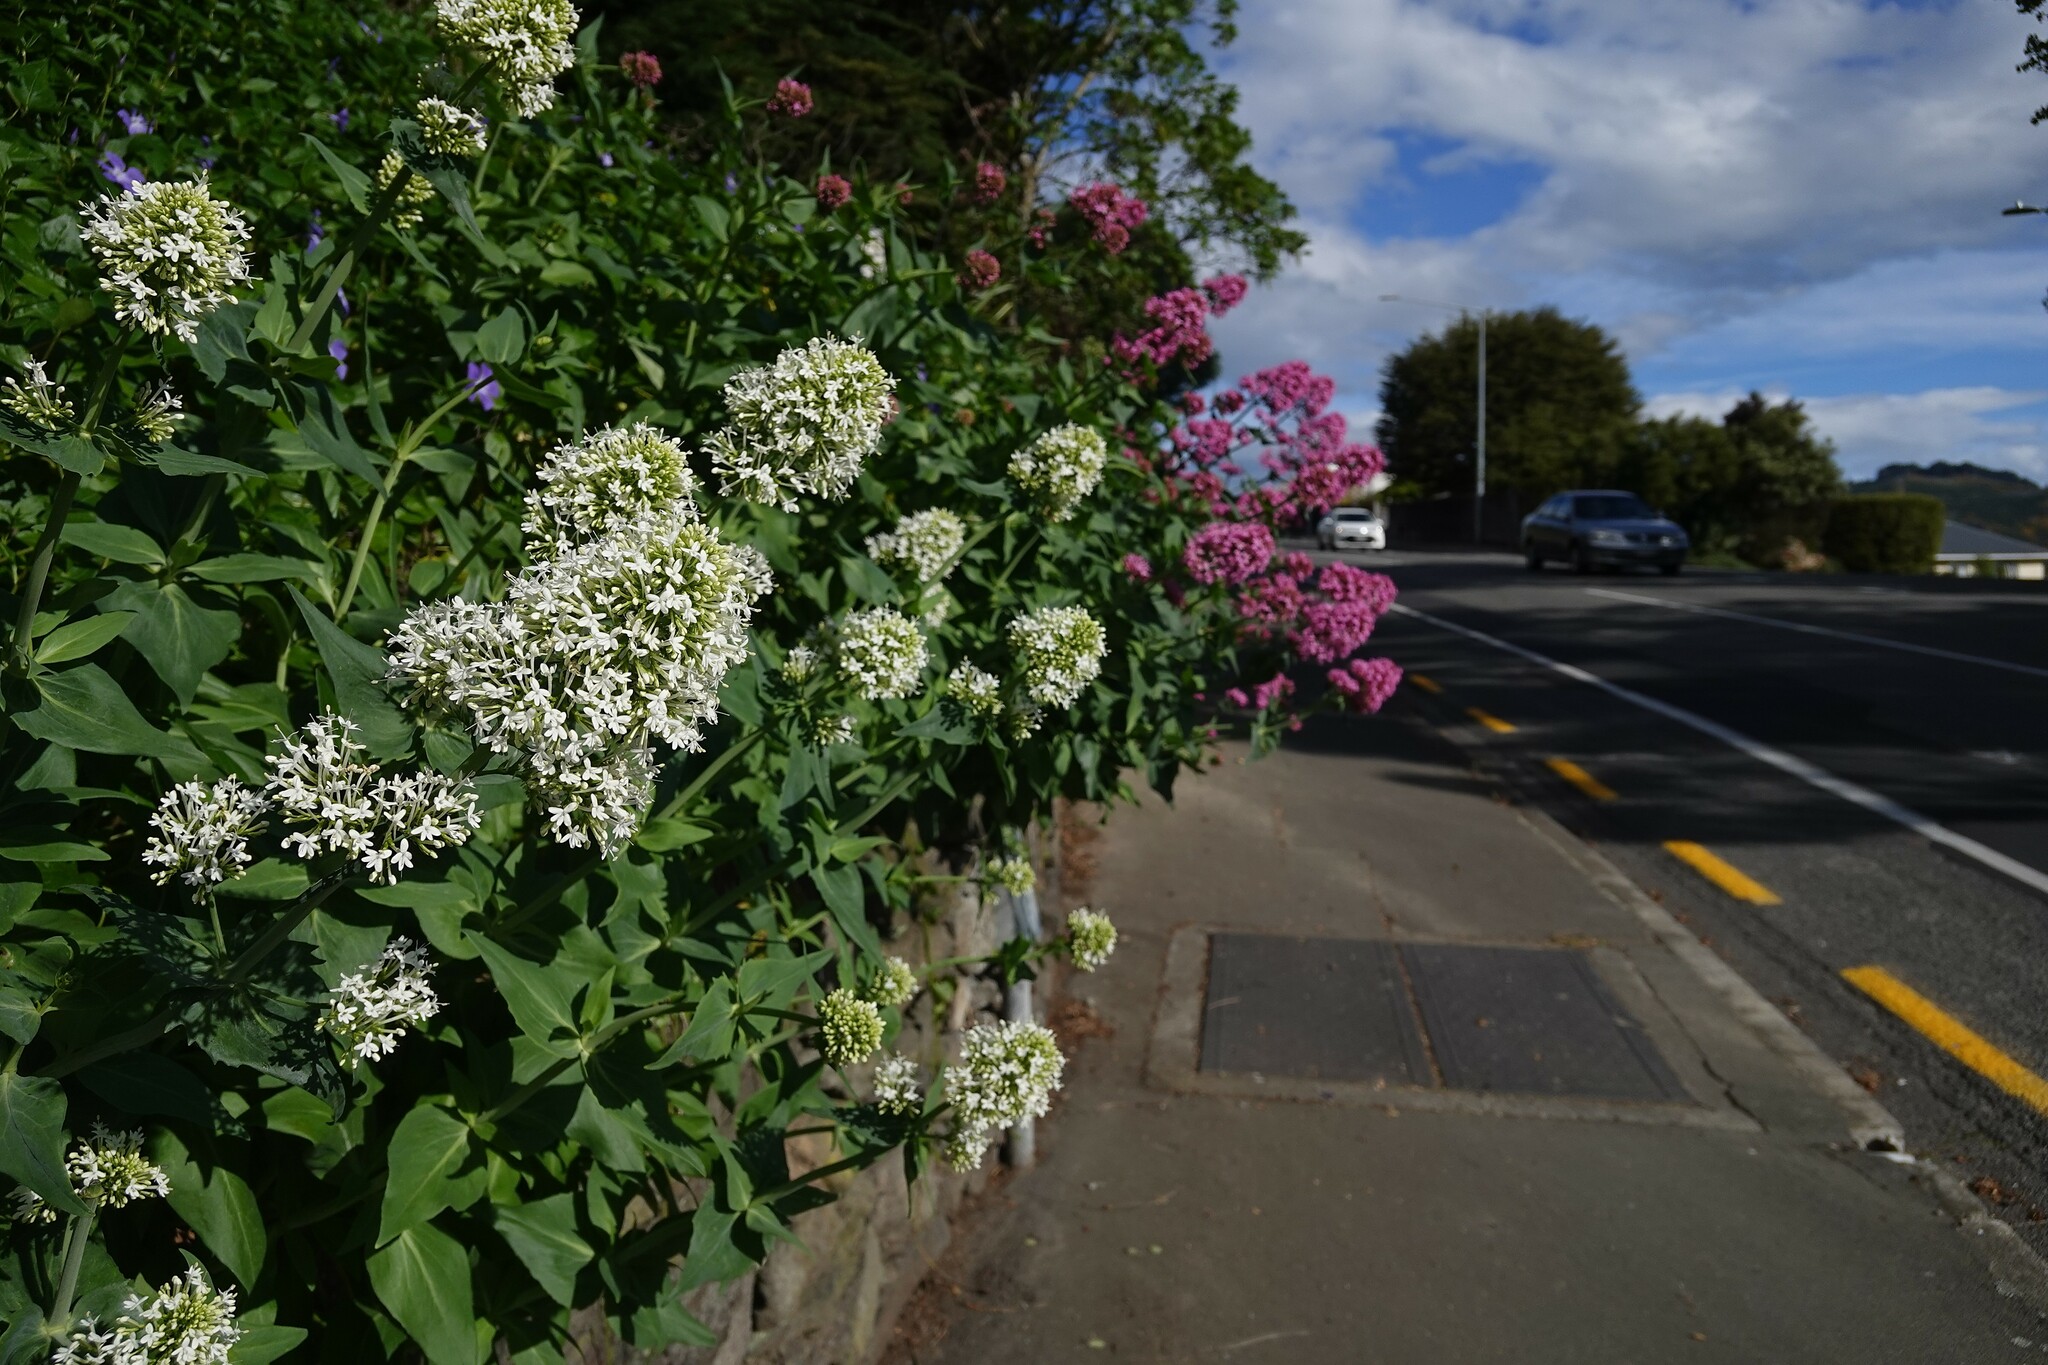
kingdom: Plantae
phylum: Tracheophyta
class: Magnoliopsida
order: Dipsacales
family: Caprifoliaceae
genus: Centranthus
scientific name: Centranthus ruber
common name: Red valerian
